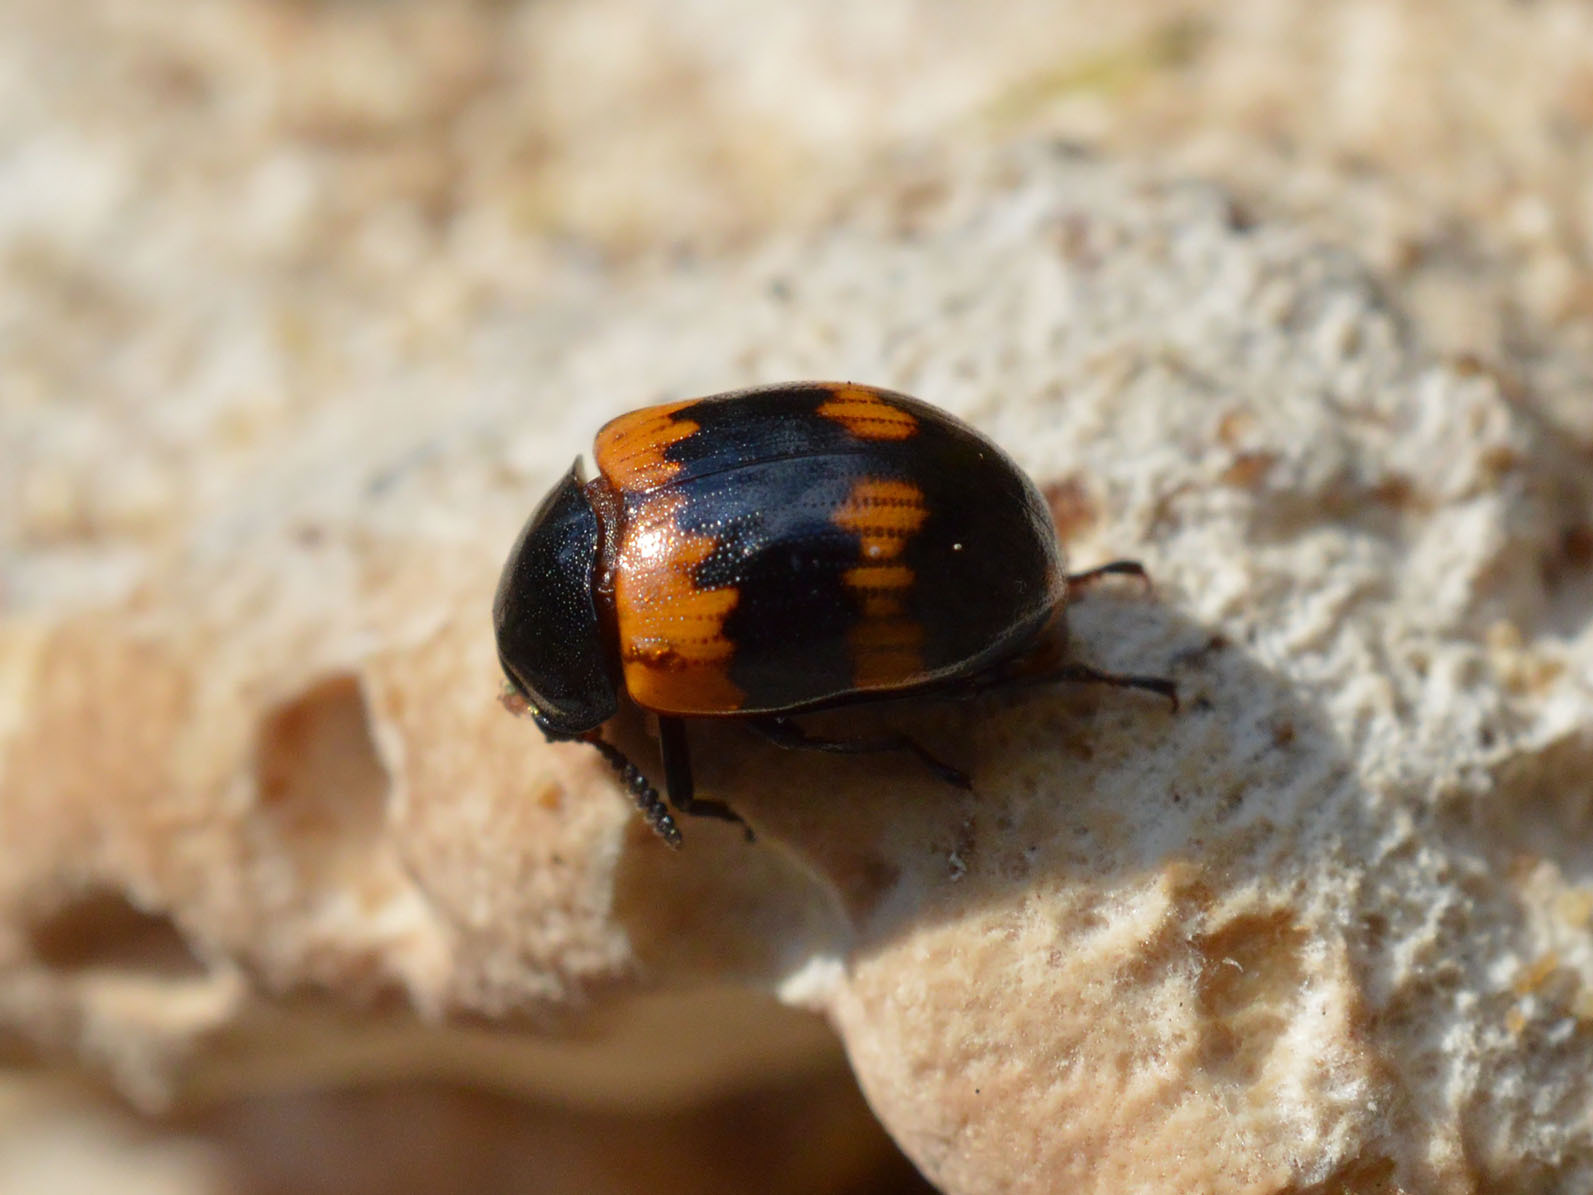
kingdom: Animalia
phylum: Arthropoda
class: Insecta
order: Coleoptera
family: Tenebrionidae
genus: Diaperis
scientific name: Diaperis boleti
